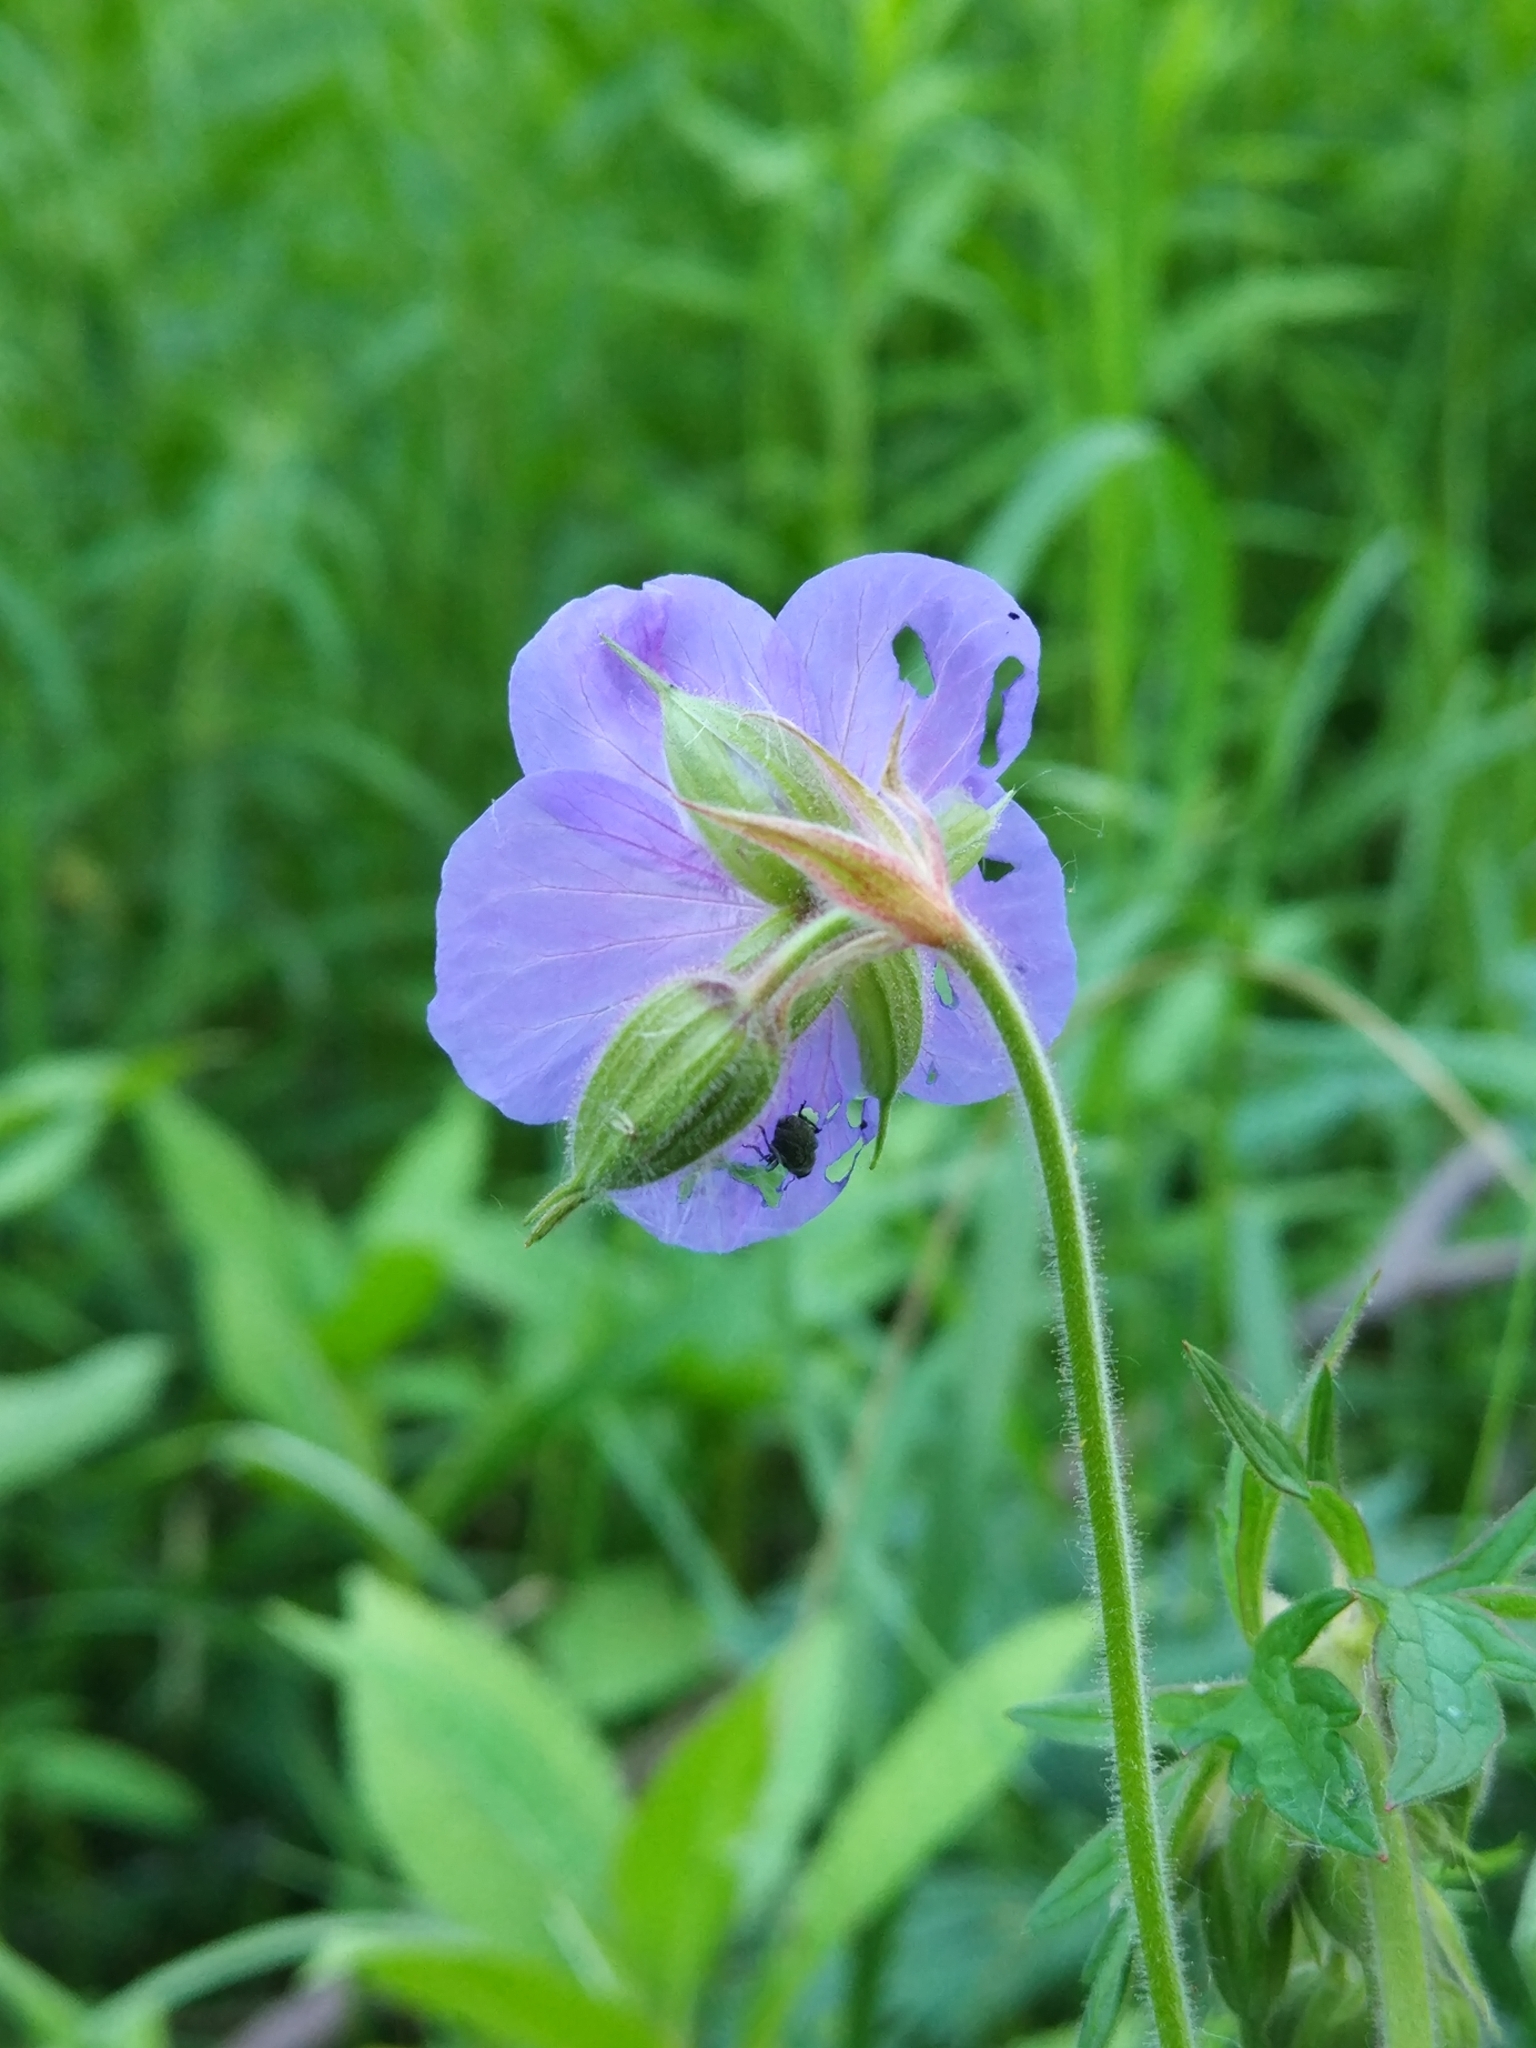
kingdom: Plantae
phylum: Tracheophyta
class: Magnoliopsida
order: Geraniales
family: Geraniaceae
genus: Geranium
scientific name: Geranium pratense
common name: Meadow crane's-bill
